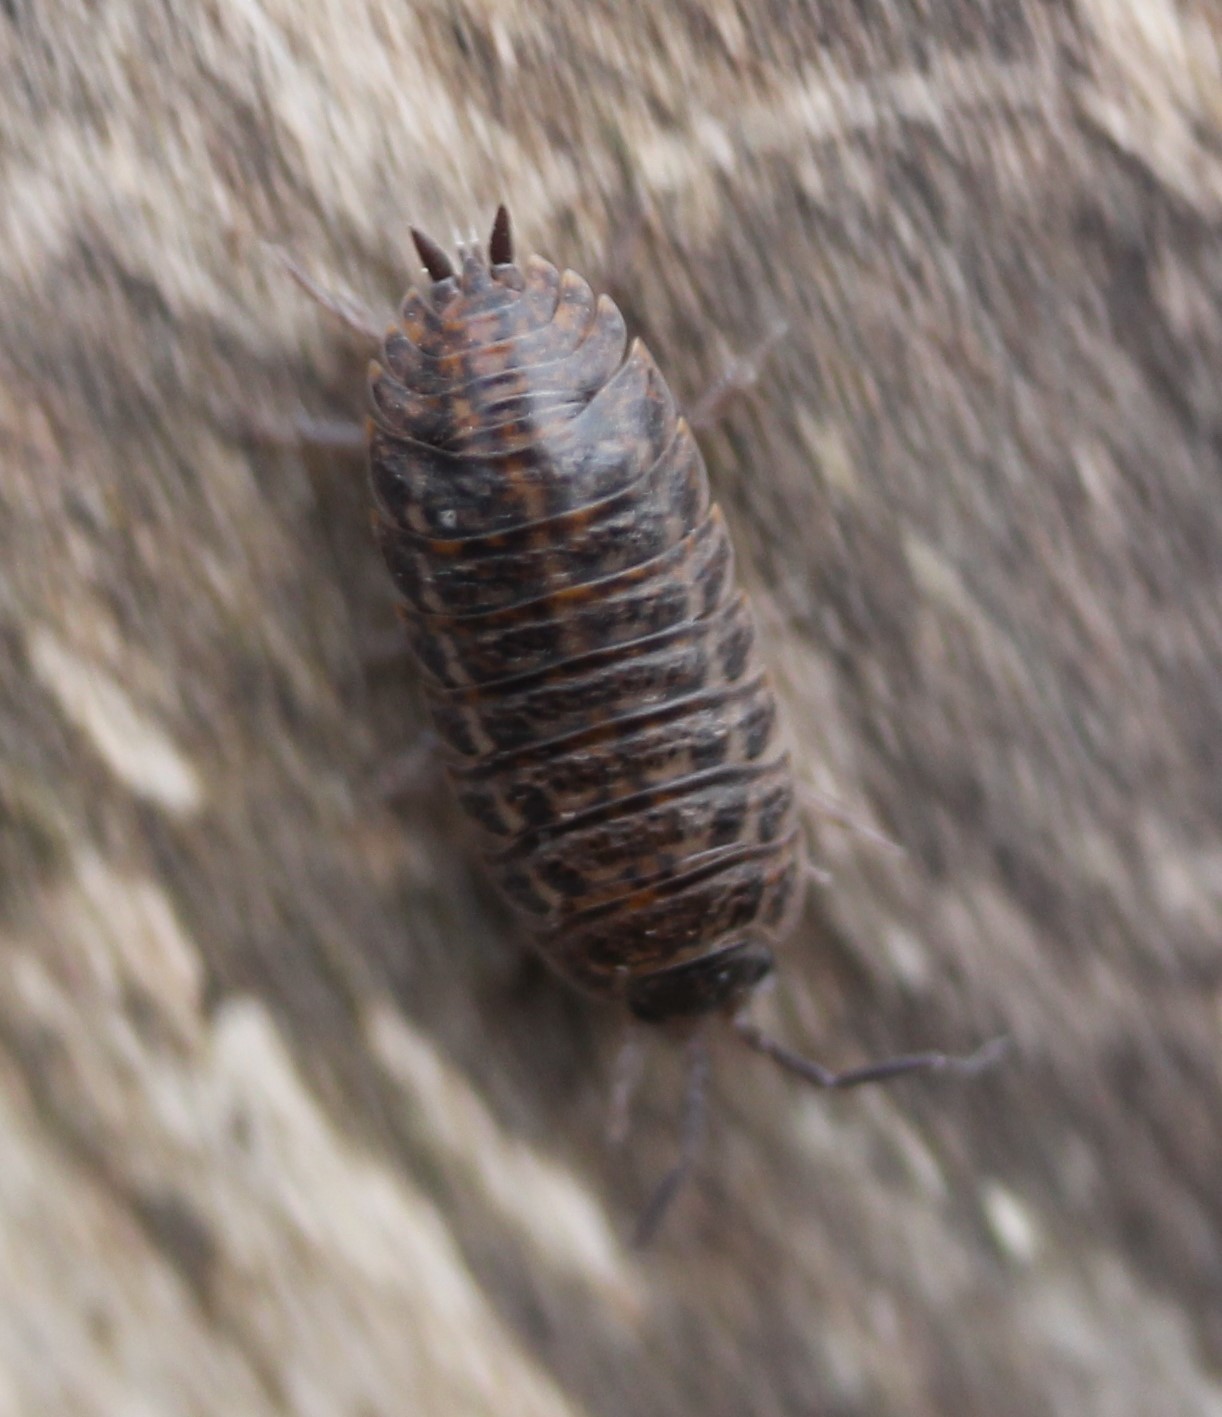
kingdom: Animalia
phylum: Arthropoda
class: Malacostraca
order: Isopoda
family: Trachelipodidae
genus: Trachelipus
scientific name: Trachelipus rathkii
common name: Isopod
